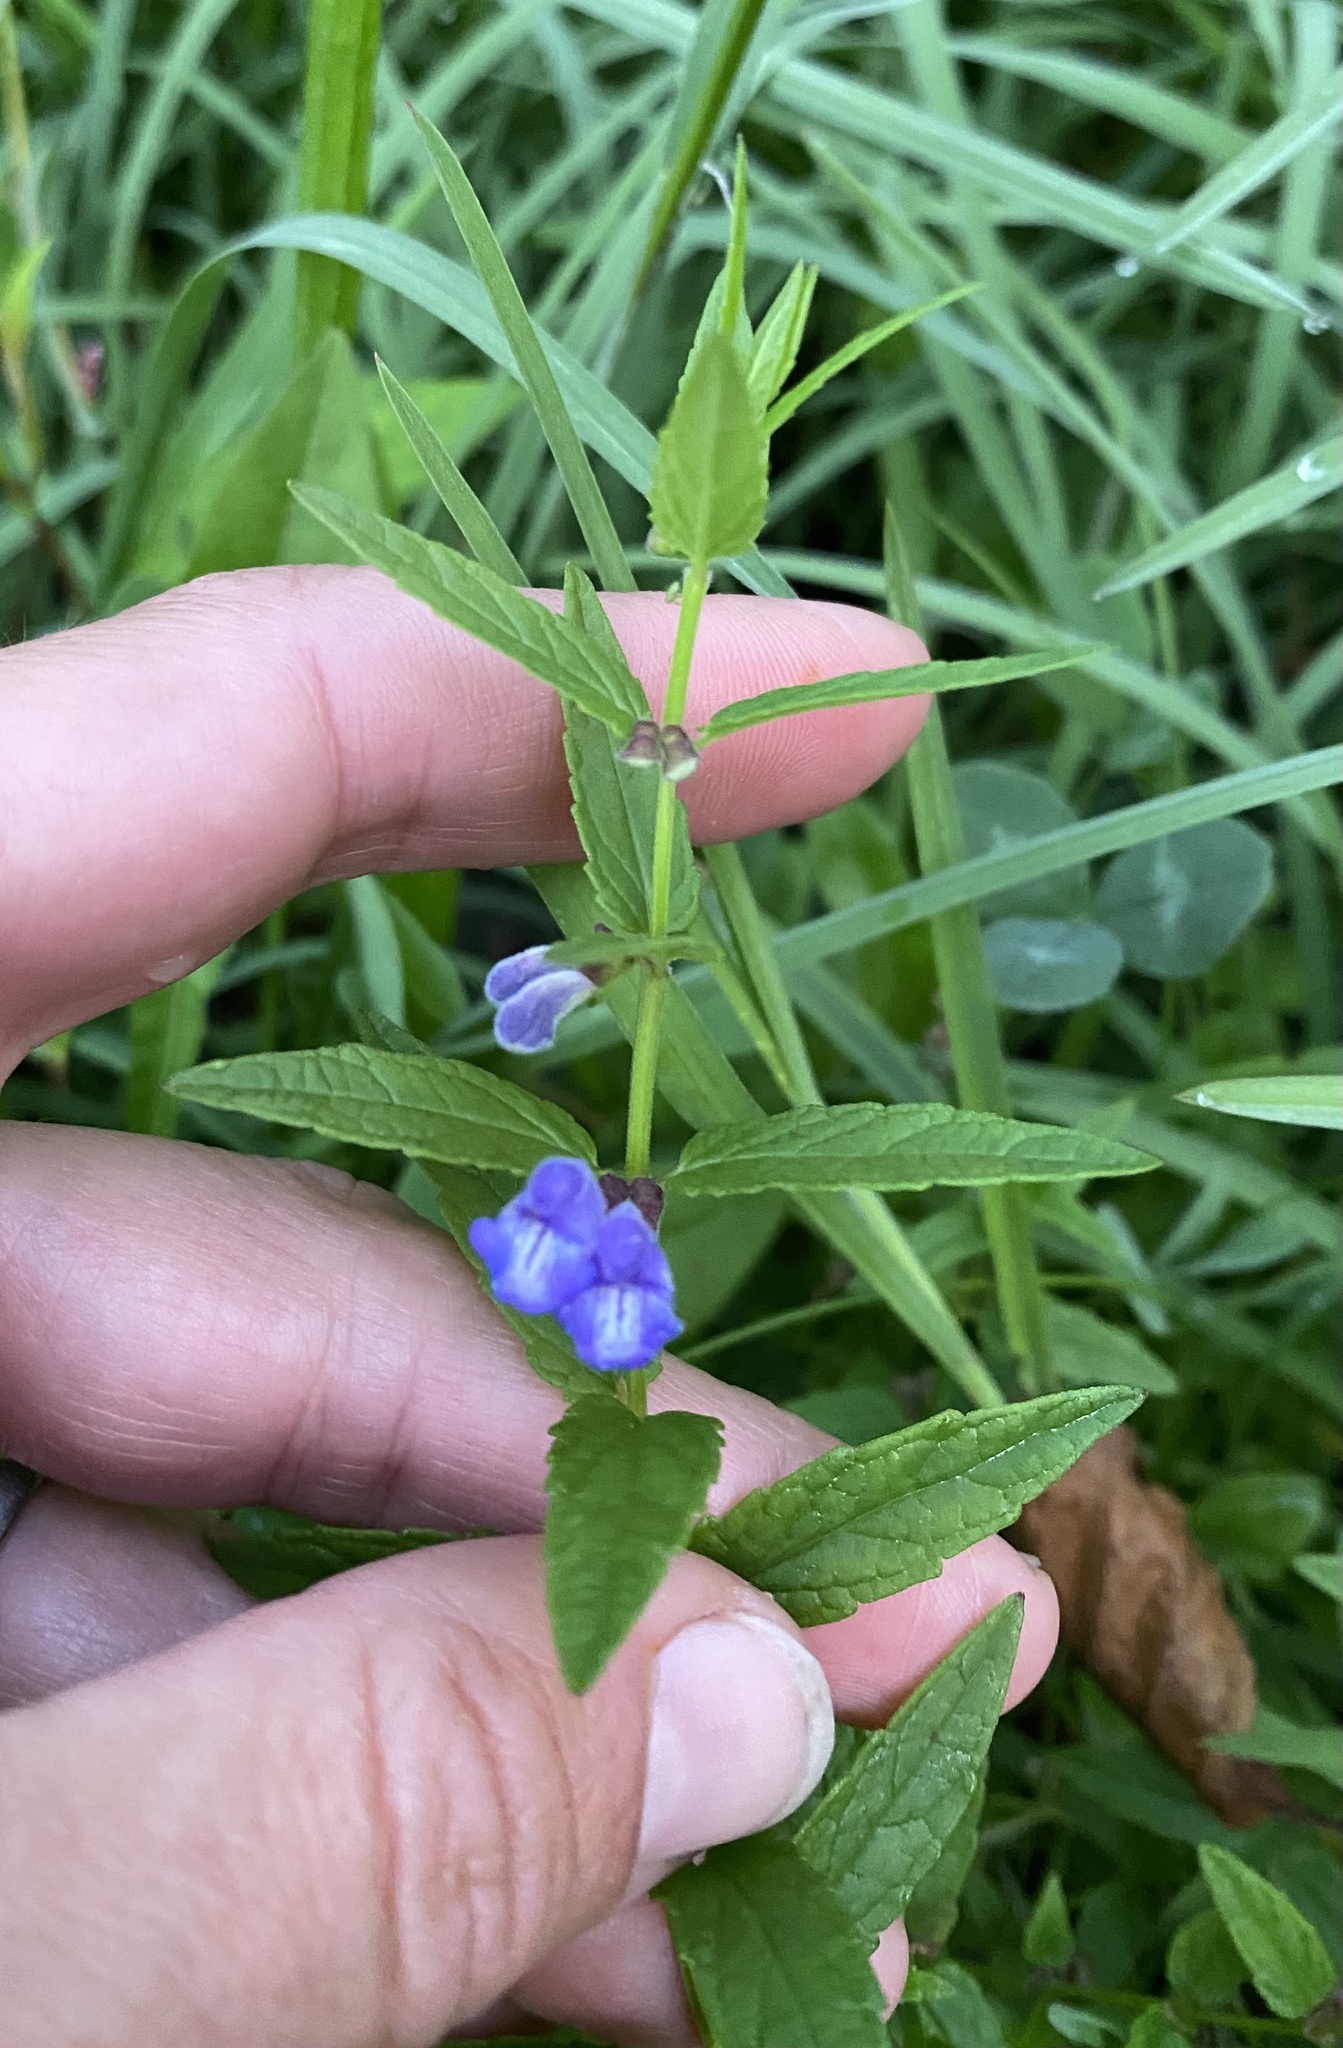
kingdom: Plantae
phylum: Tracheophyta
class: Magnoliopsida
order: Lamiales
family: Lamiaceae
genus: Scutellaria
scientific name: Scutellaria galericulata
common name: Skullcap
